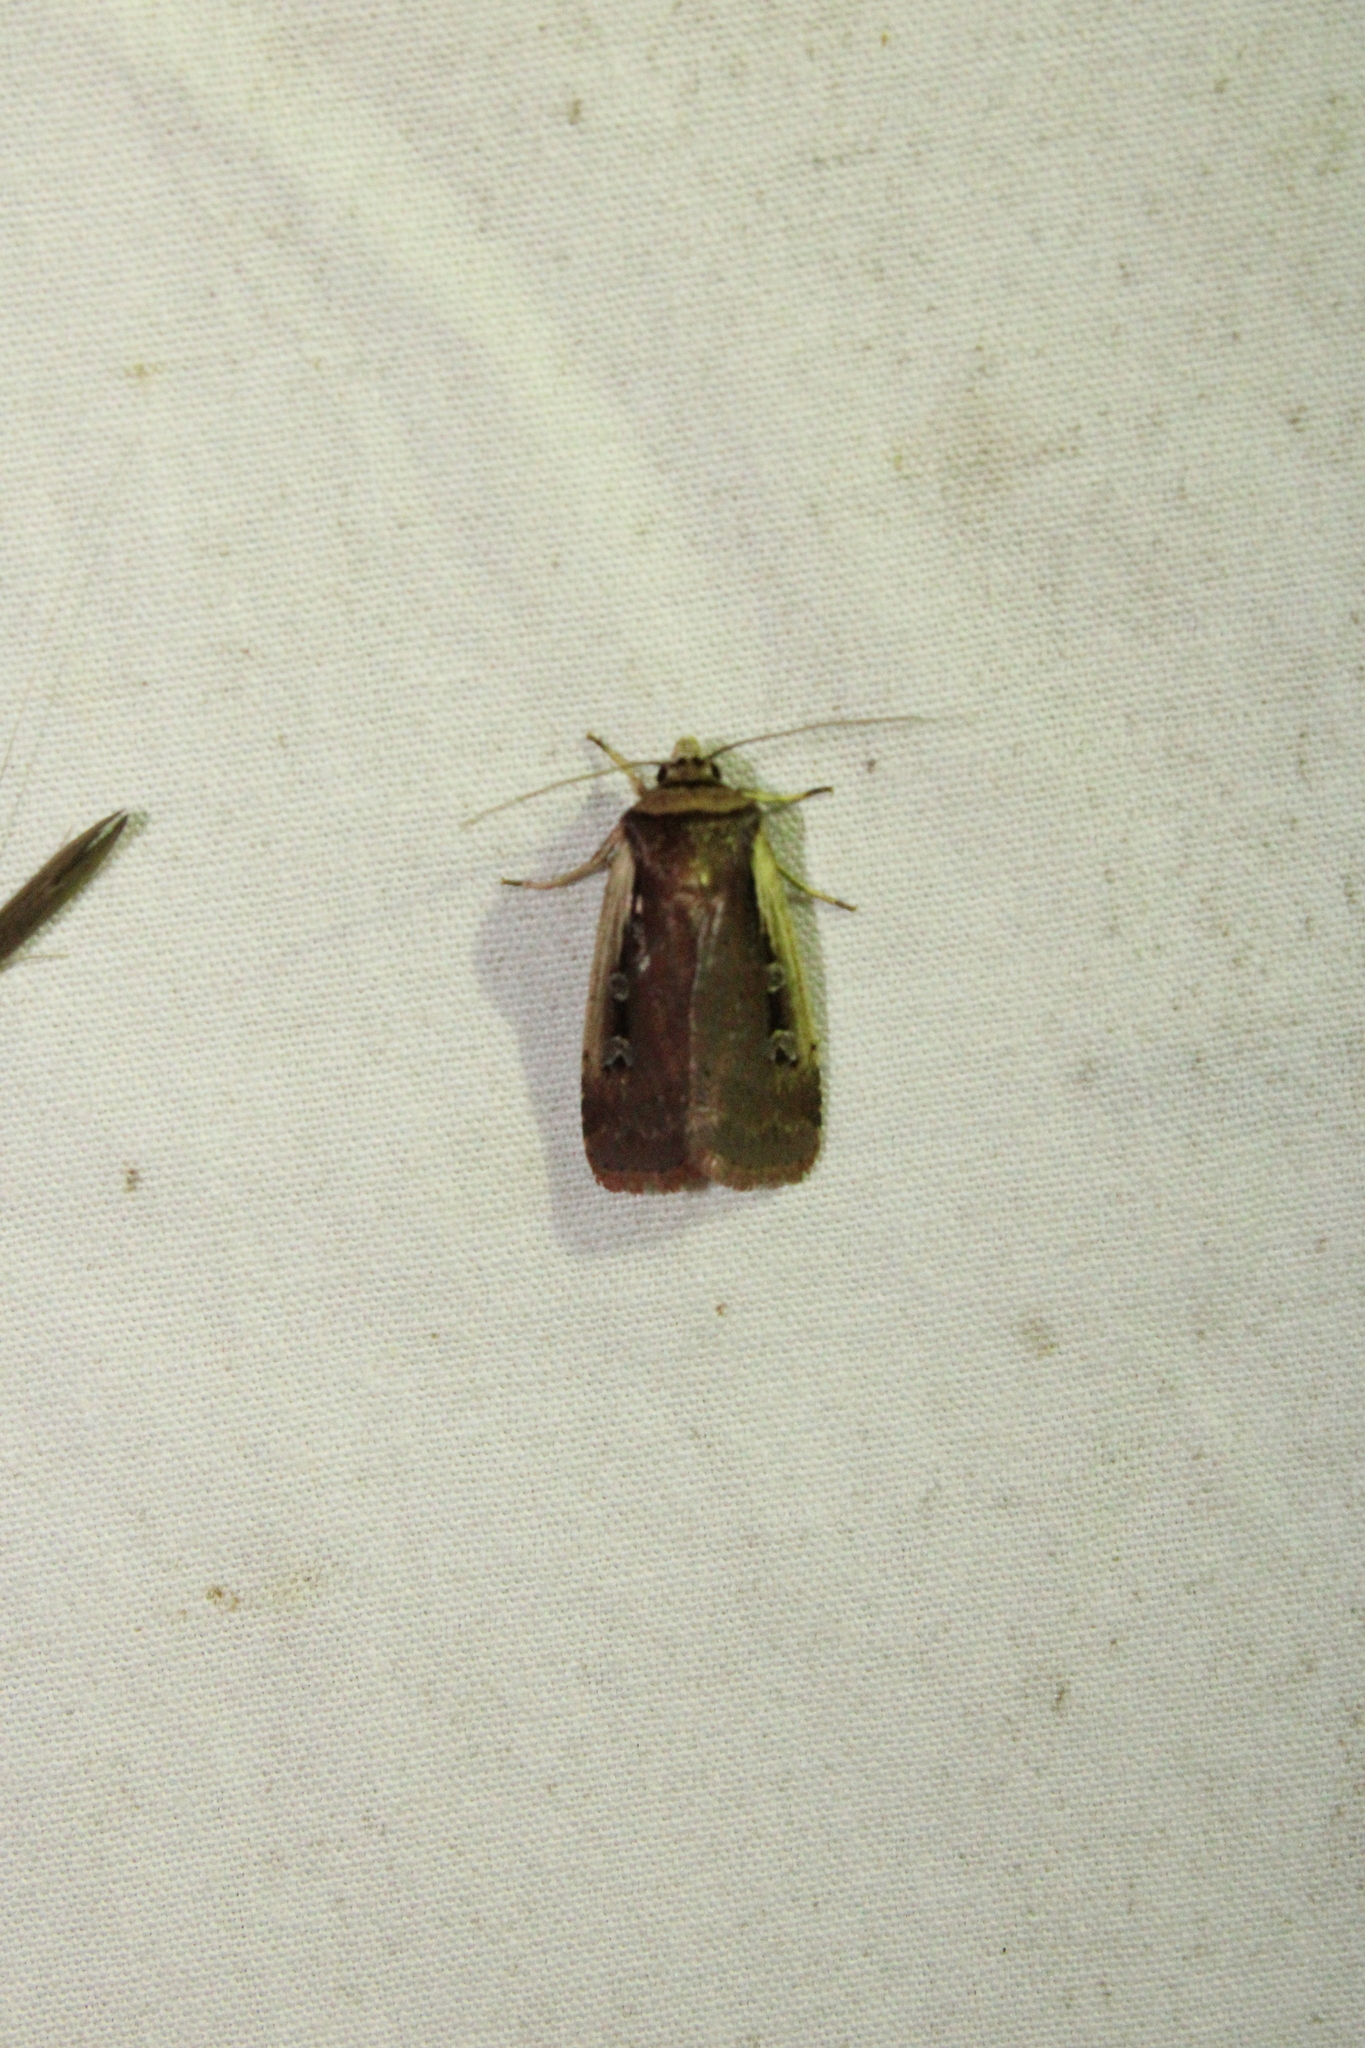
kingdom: Animalia
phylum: Arthropoda
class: Insecta
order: Lepidoptera
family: Noctuidae
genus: Ochropleura
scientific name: Ochropleura implecta
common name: Flame-shouldered dart
